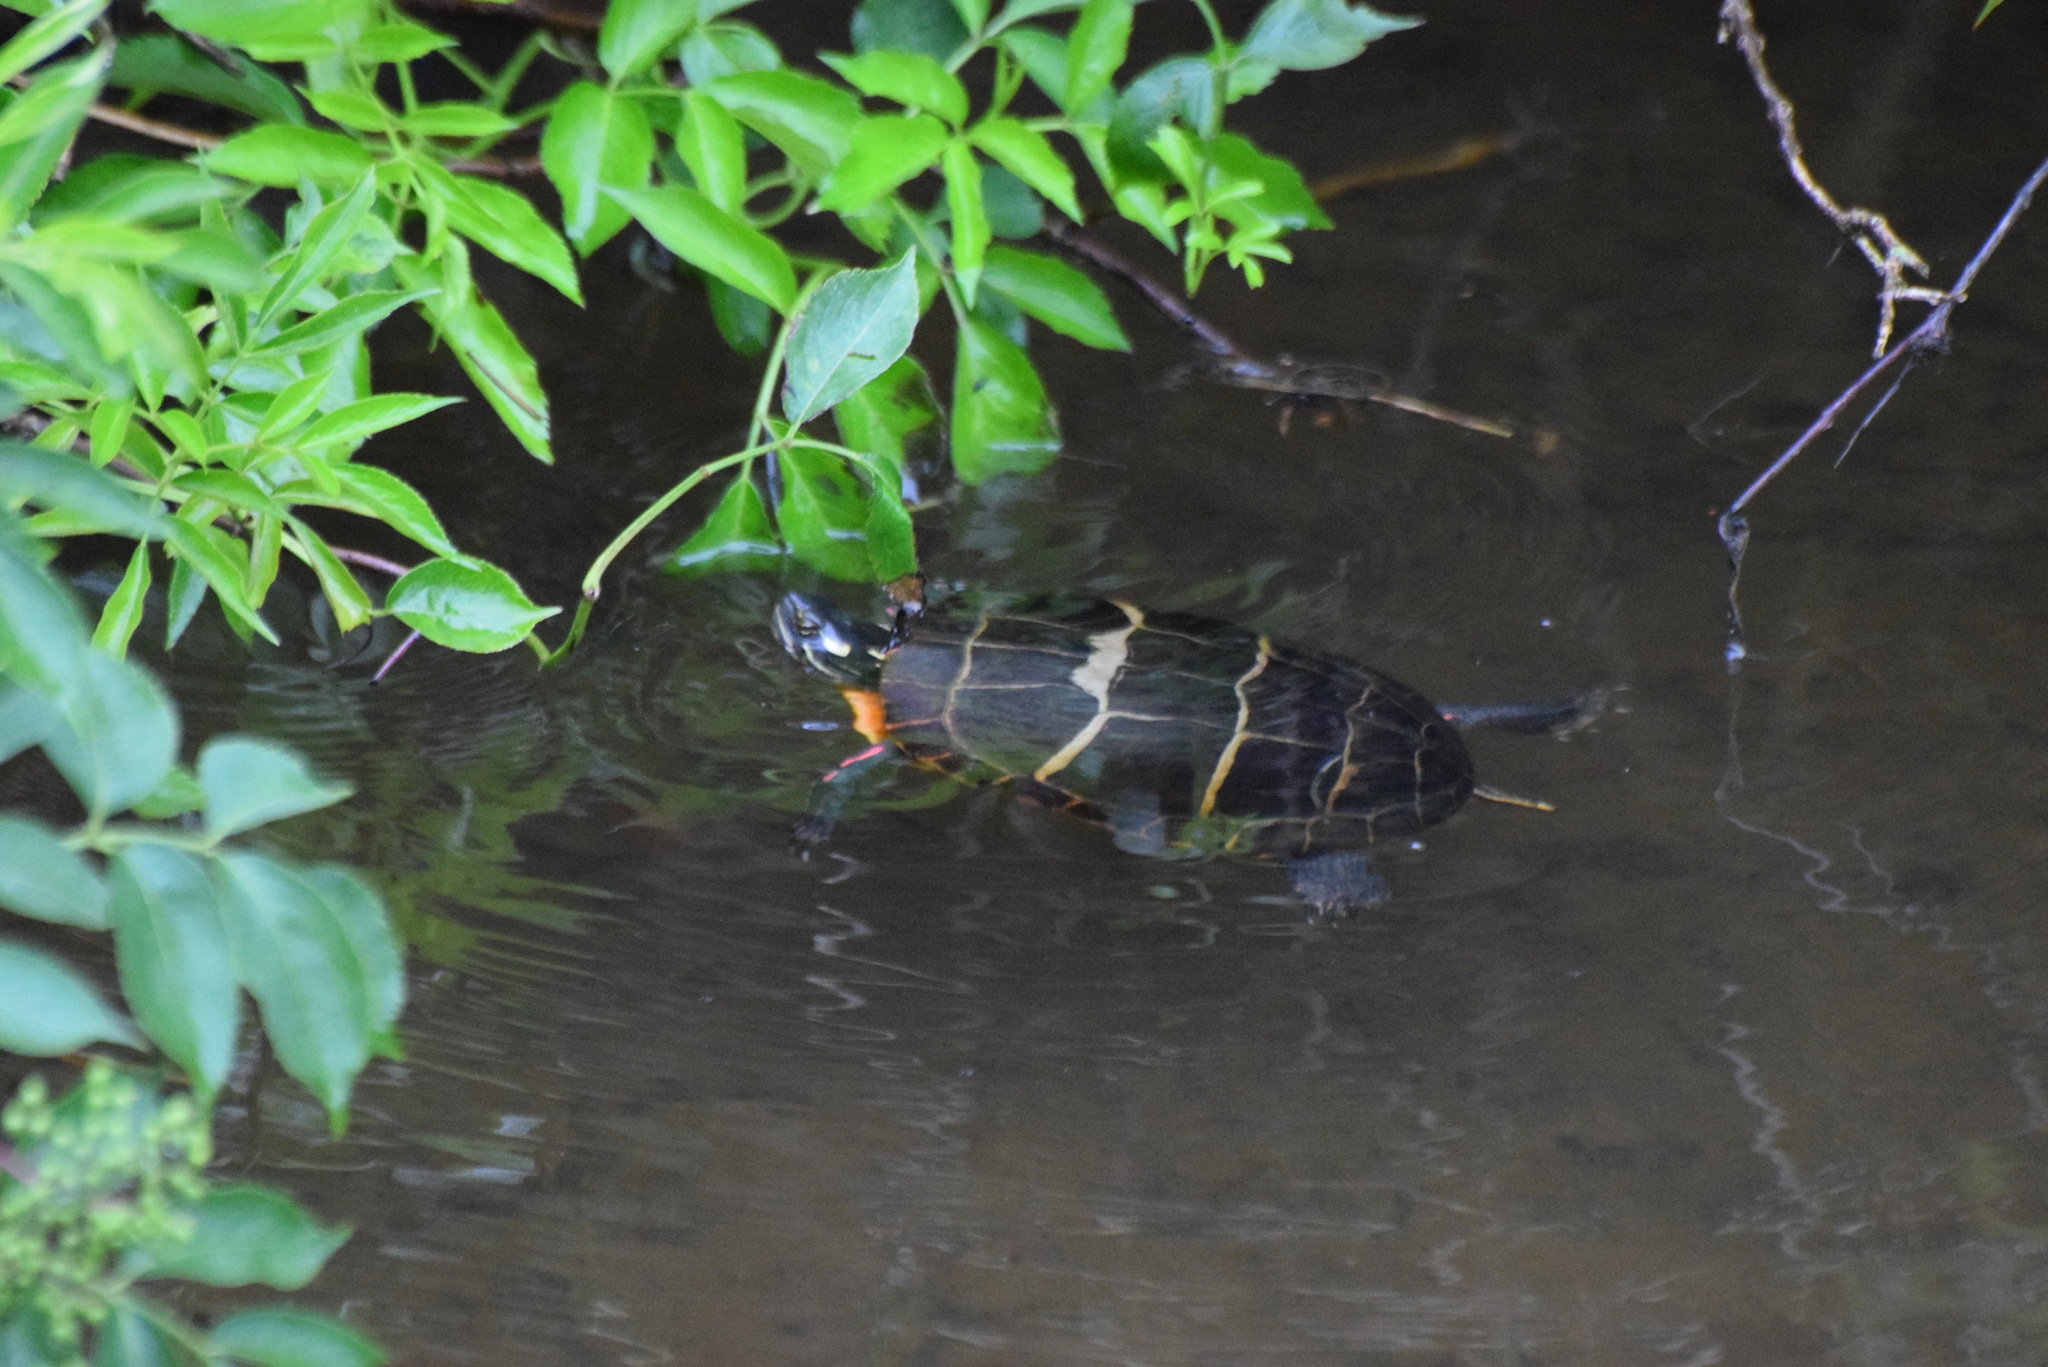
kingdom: Animalia
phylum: Chordata
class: Testudines
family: Emydidae
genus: Chrysemys
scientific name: Chrysemys picta
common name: Painted turtle
